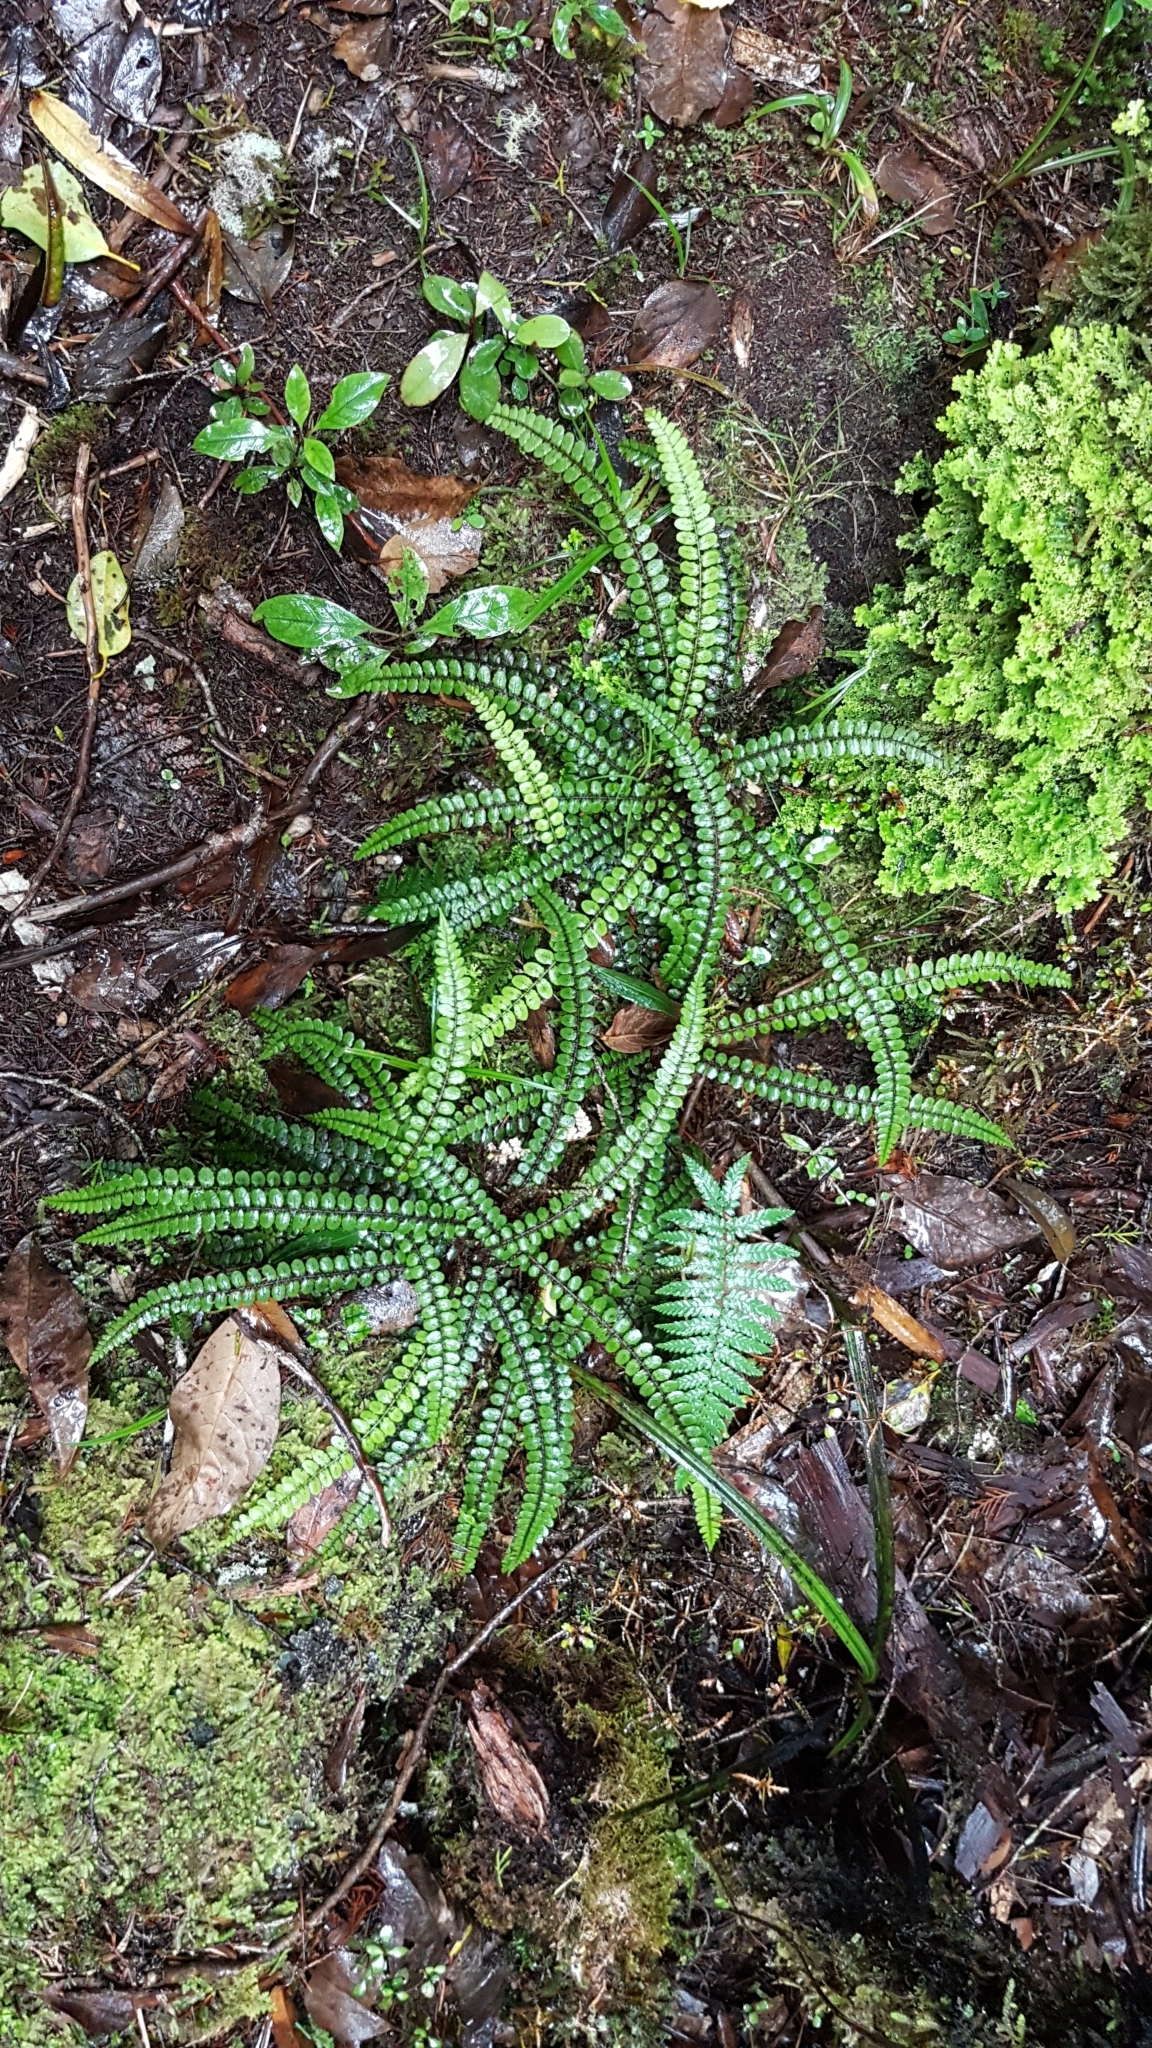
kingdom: Plantae
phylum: Tracheophyta
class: Polypodiopsida
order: Polypodiales
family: Blechnaceae
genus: Cranfillia
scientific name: Cranfillia fluviatilis
